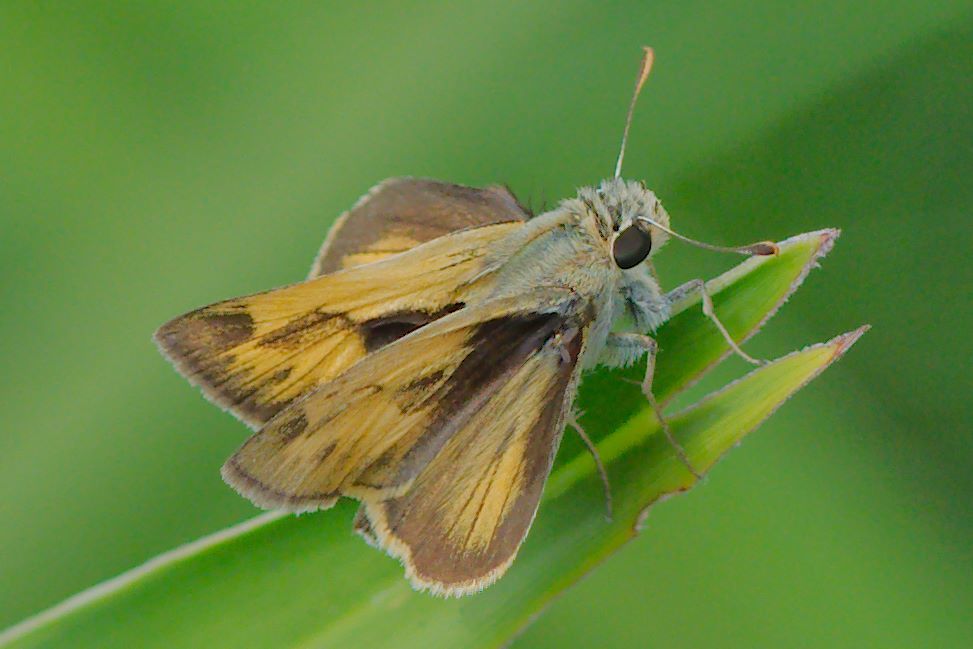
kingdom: Animalia
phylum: Arthropoda
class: Insecta
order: Lepidoptera
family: Hesperiidae
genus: Polites
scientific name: Polites vibex
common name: Whirlabout
